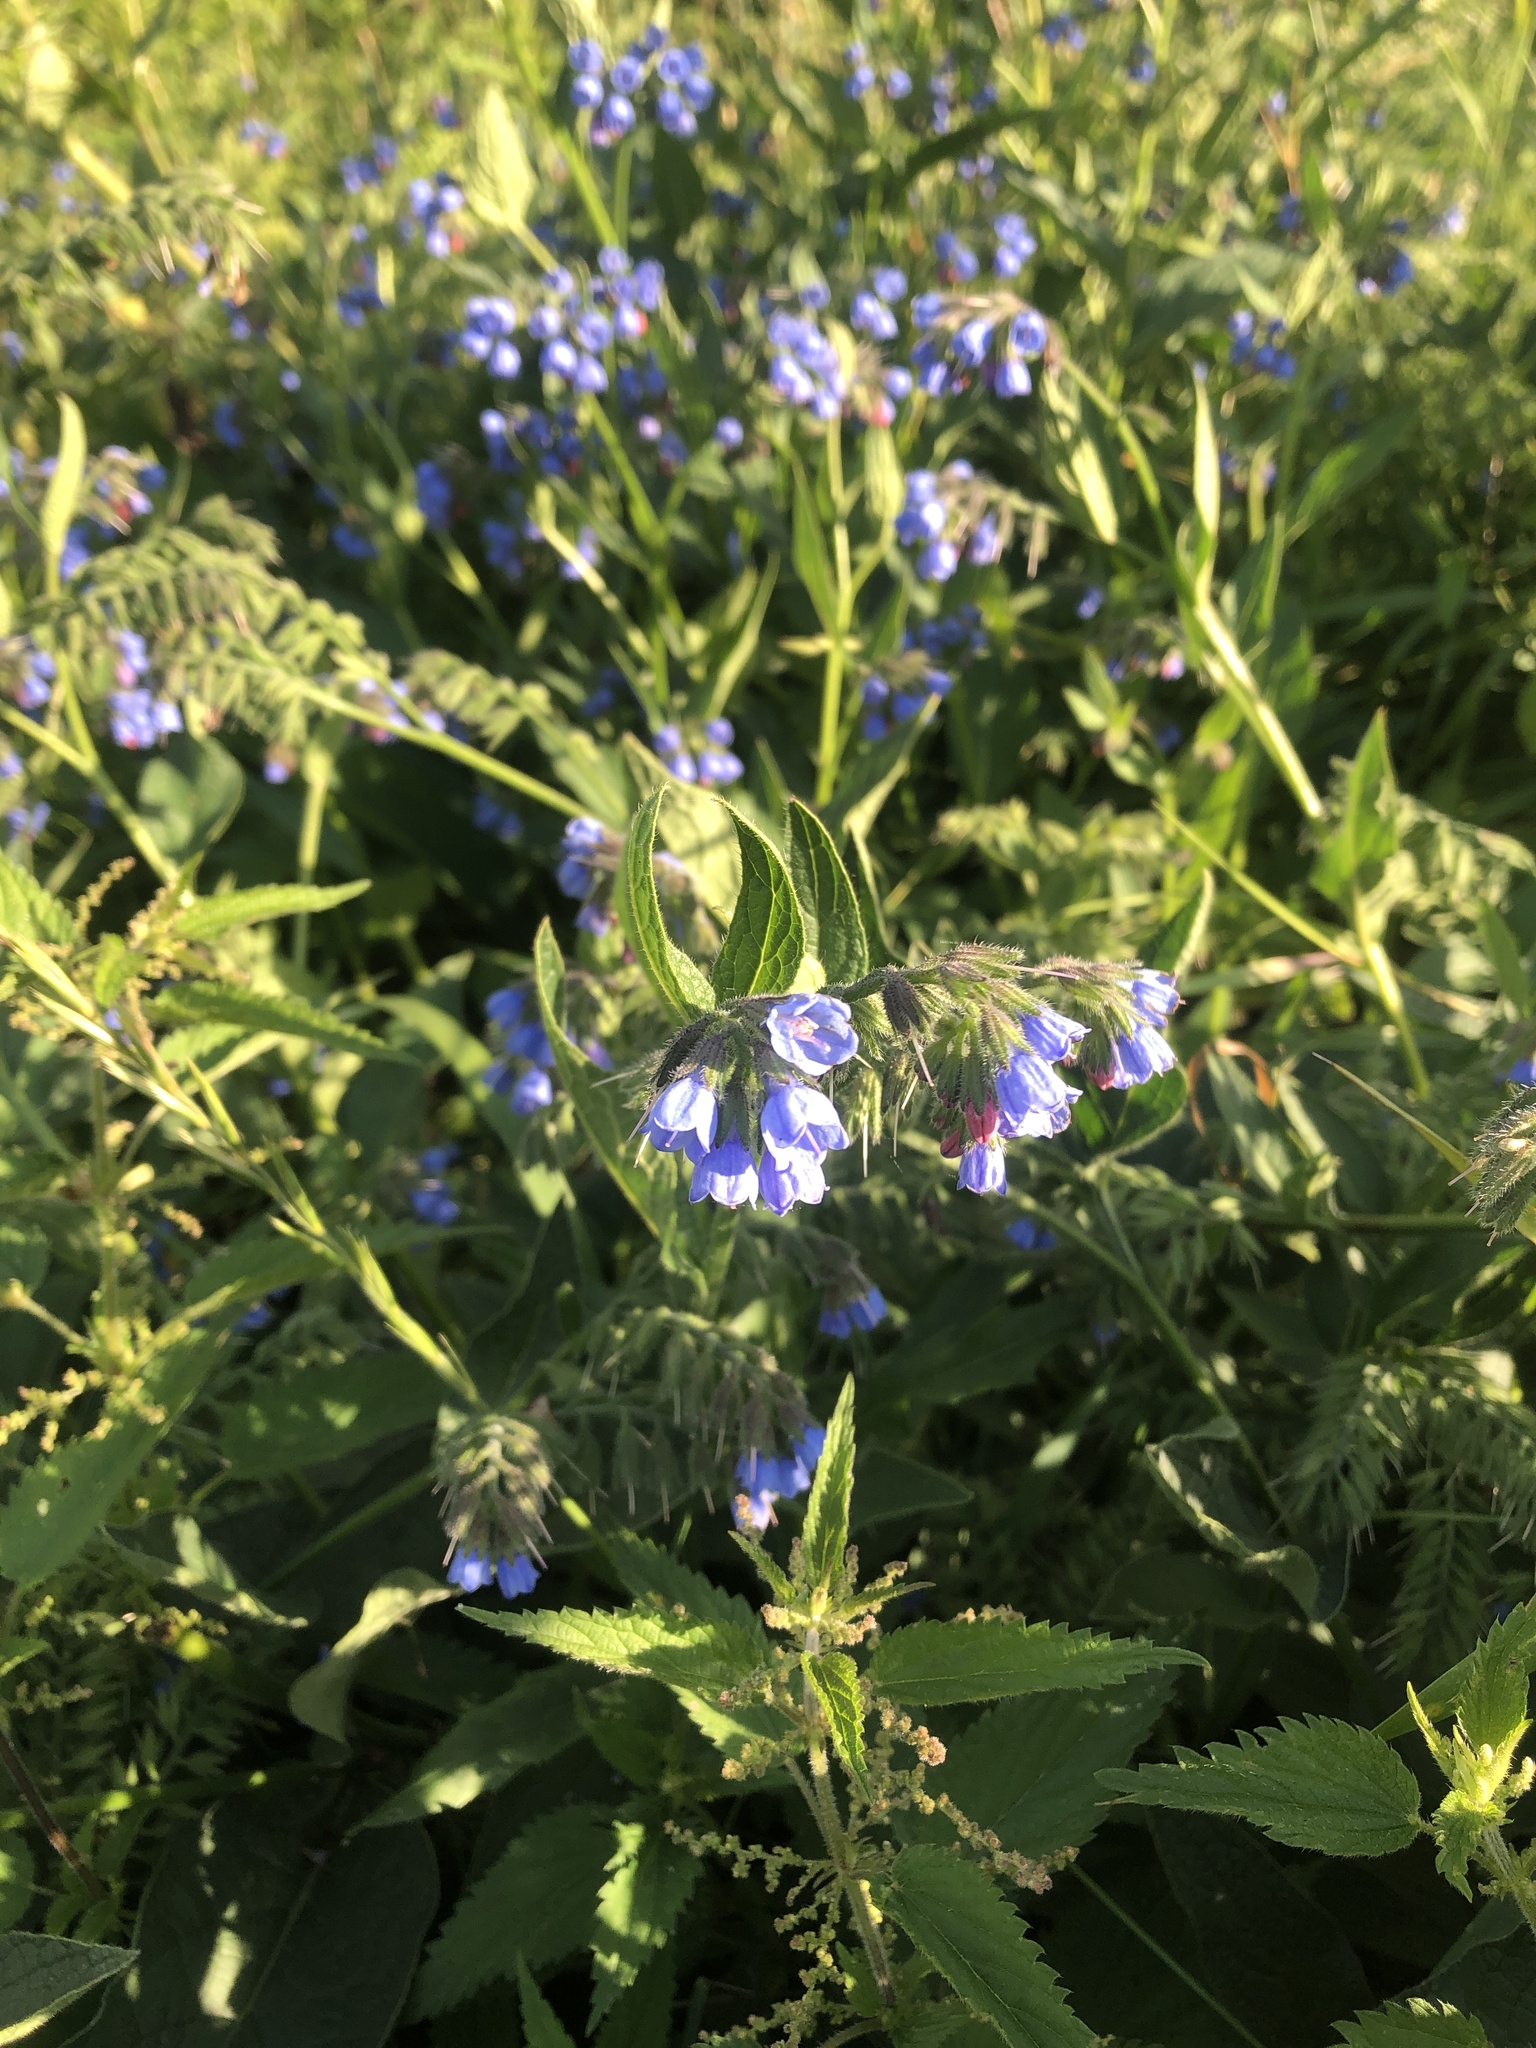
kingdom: Plantae
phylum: Tracheophyta
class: Magnoliopsida
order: Boraginales
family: Boraginaceae
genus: Symphytum
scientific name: Symphytum caucasicum
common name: Caucasian comfrey
